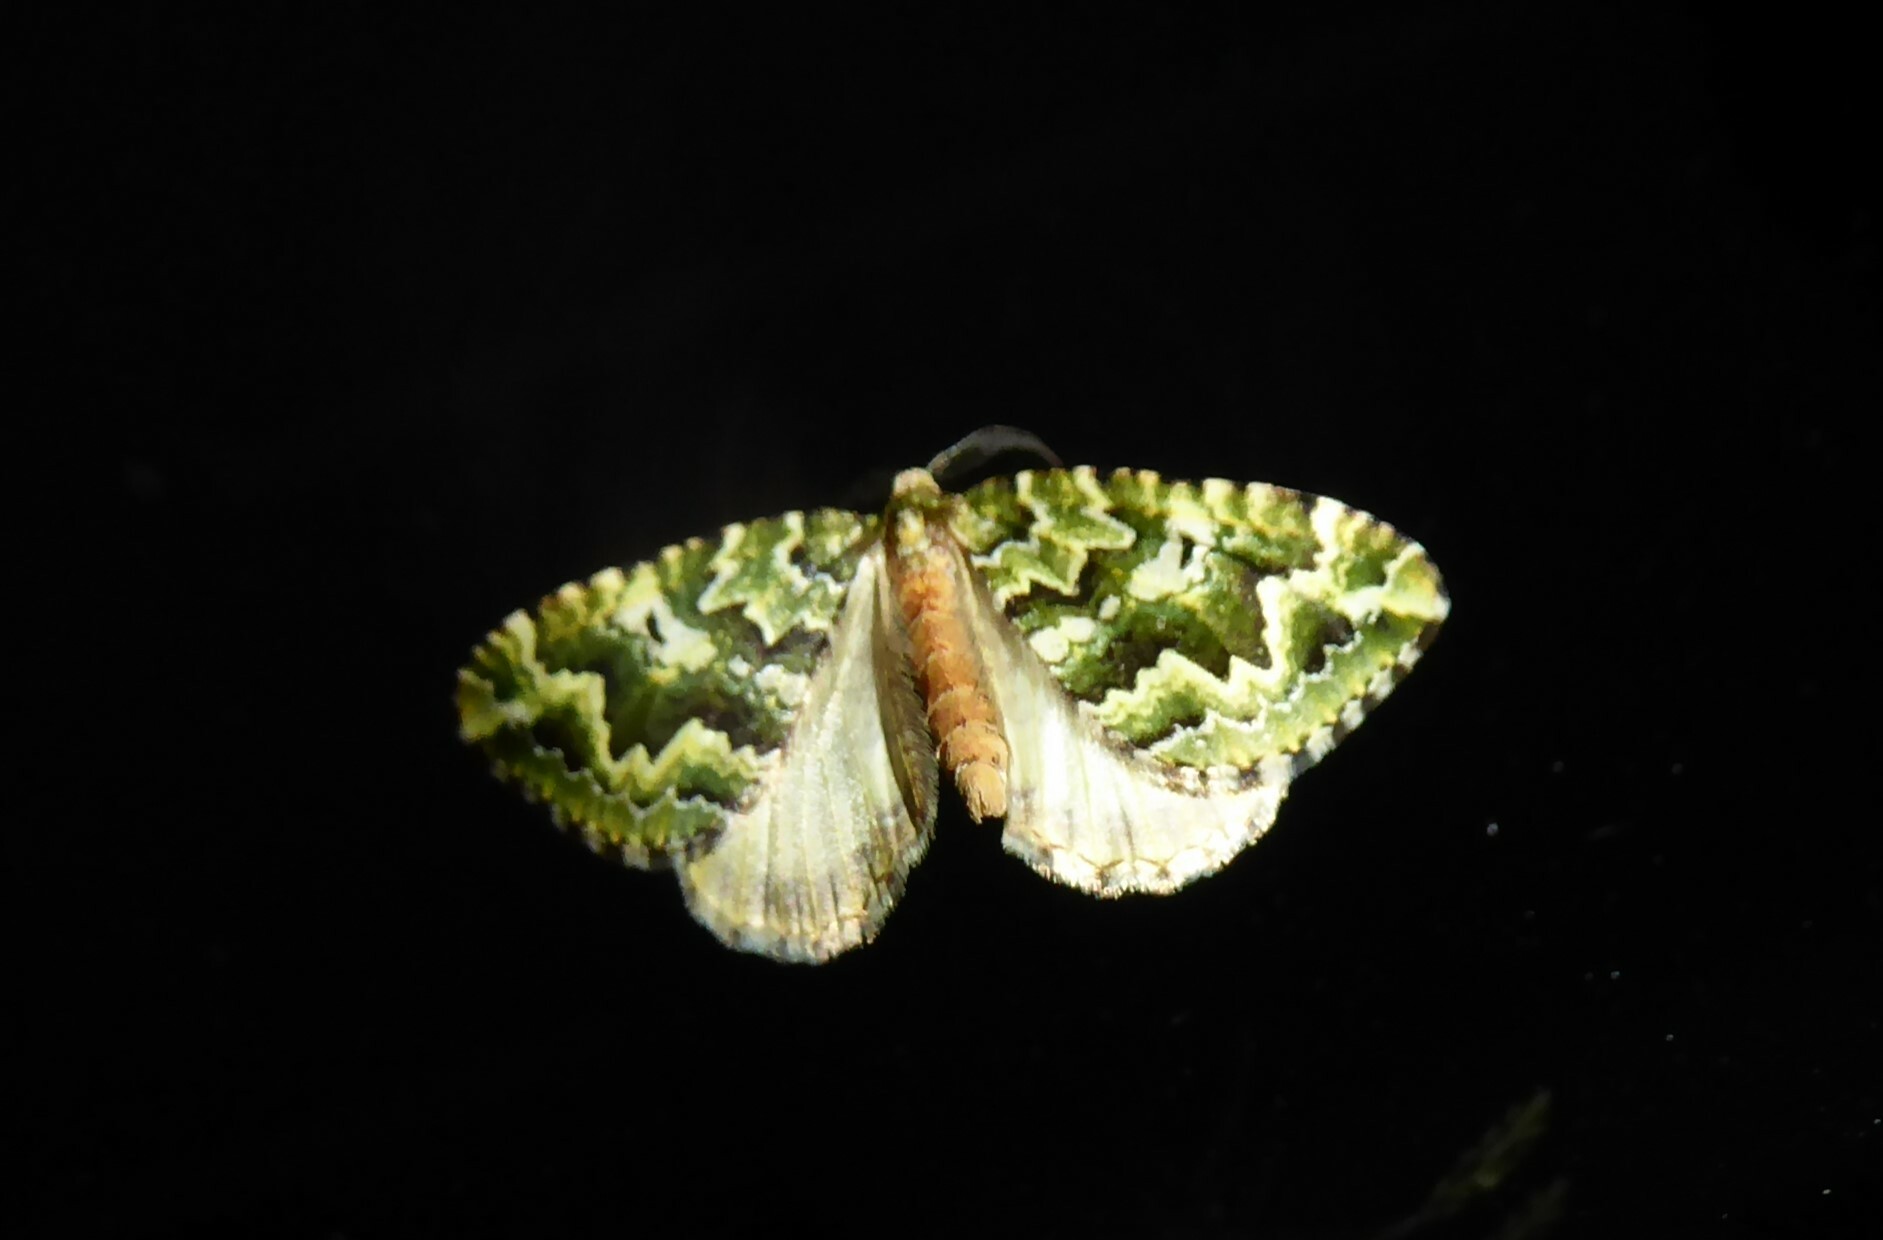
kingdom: Animalia
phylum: Arthropoda
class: Insecta
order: Lepidoptera
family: Geometridae
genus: Asaphodes
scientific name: Asaphodes beata
